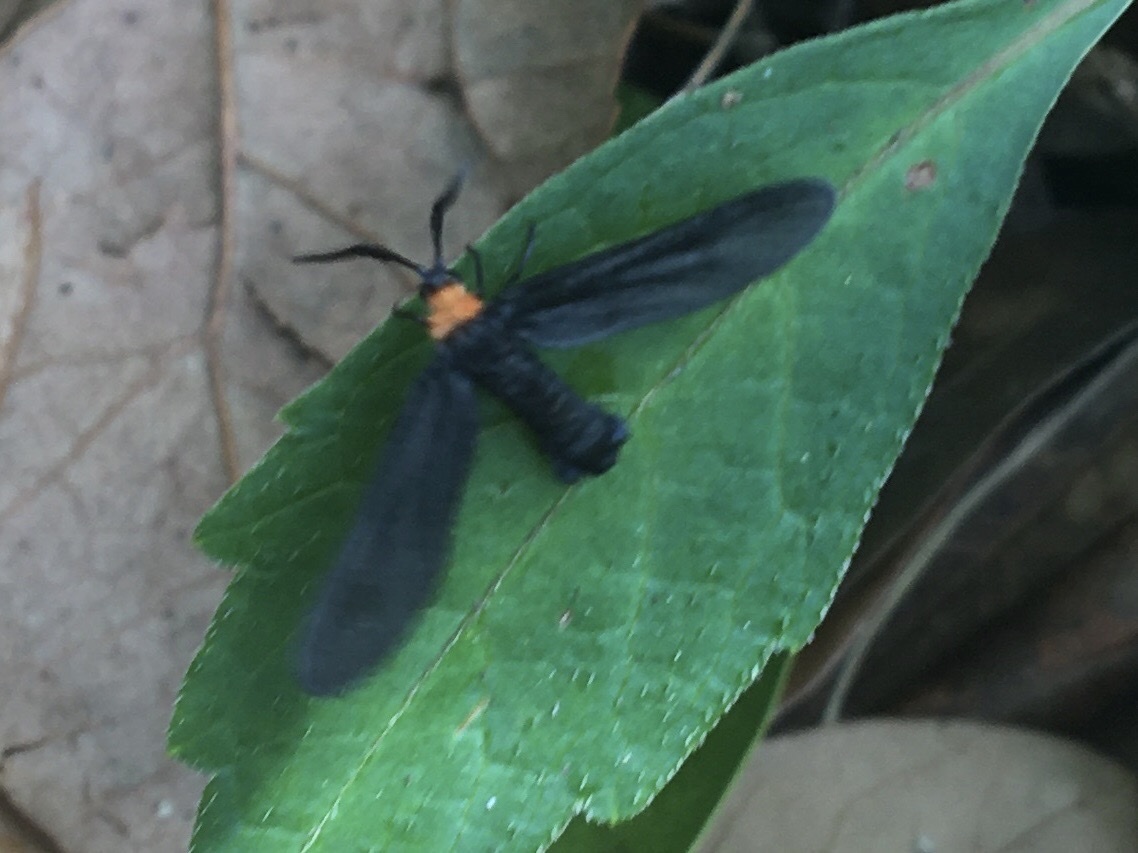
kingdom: Animalia
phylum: Arthropoda
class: Insecta
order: Lepidoptera
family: Zygaenidae
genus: Harrisina
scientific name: Harrisina americana
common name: Grapeleaf skeletonizer moth
